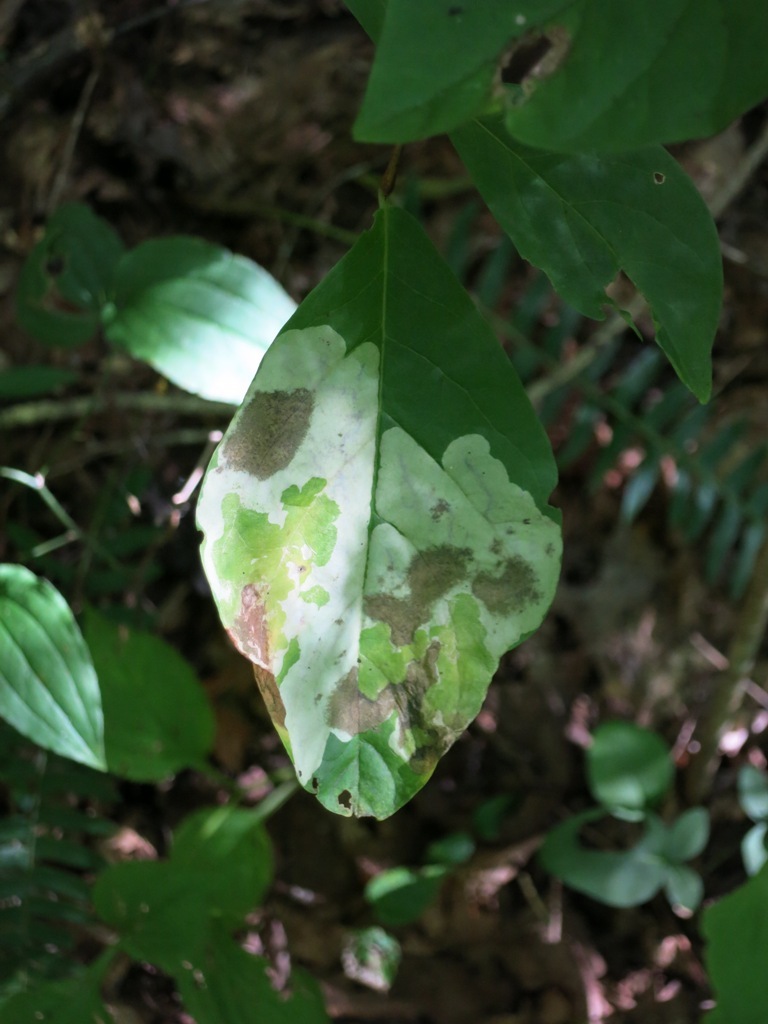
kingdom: Plantae
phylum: Tracheophyta
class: Magnoliopsida
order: Malvales
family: Thymelaeaceae
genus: Dirca
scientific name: Dirca palustris
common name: Leatherwood
